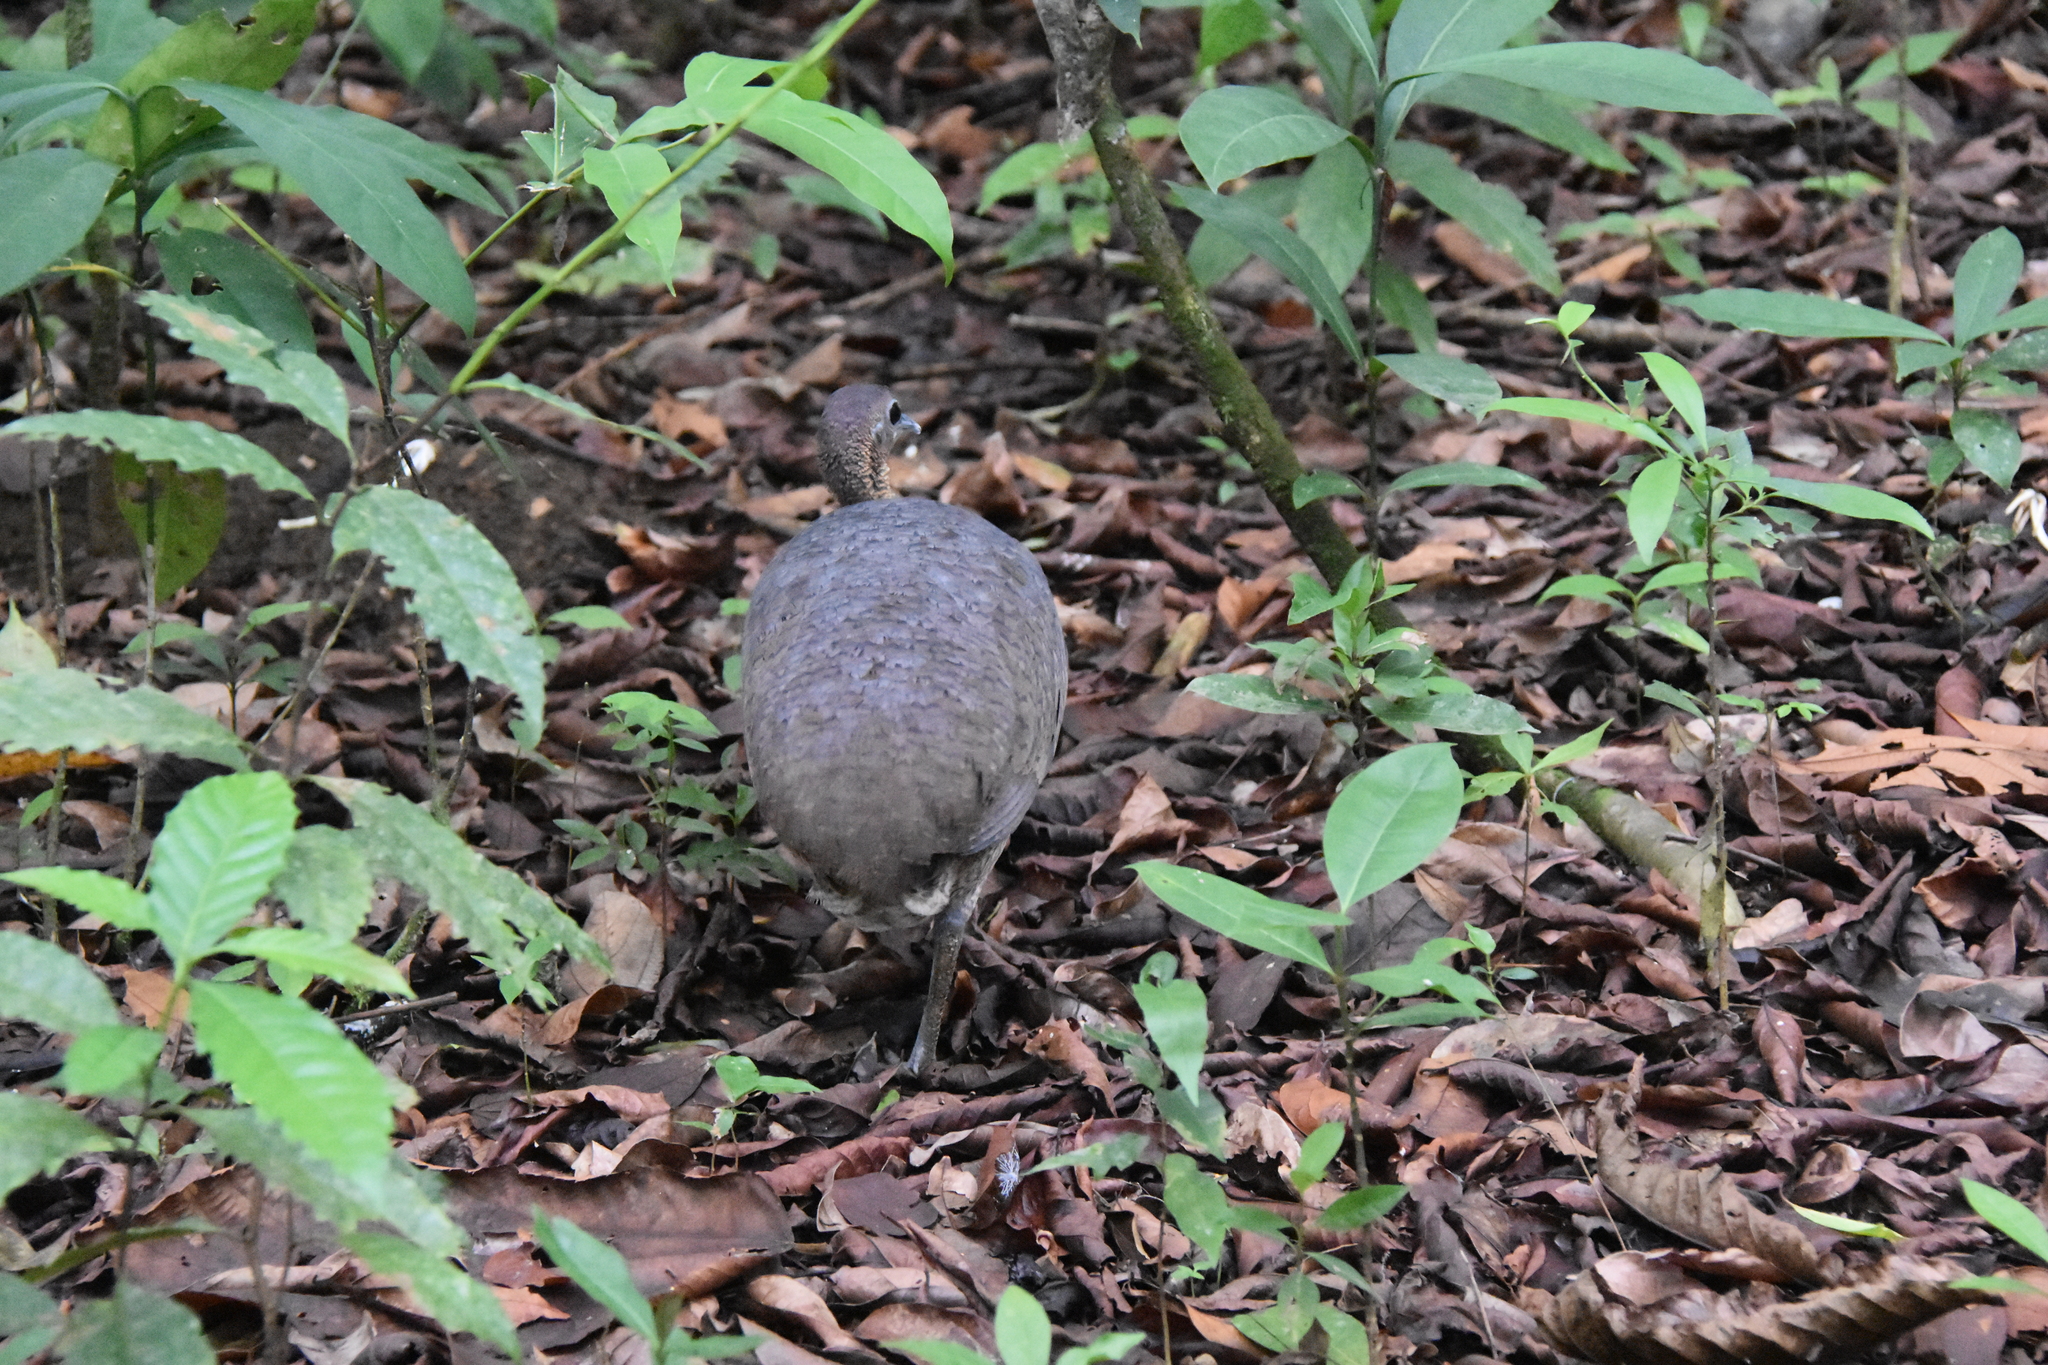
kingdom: Animalia
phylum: Chordata
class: Aves
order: Tinamiformes
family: Tinamidae
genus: Tinamus
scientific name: Tinamus major
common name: Great tinamou
